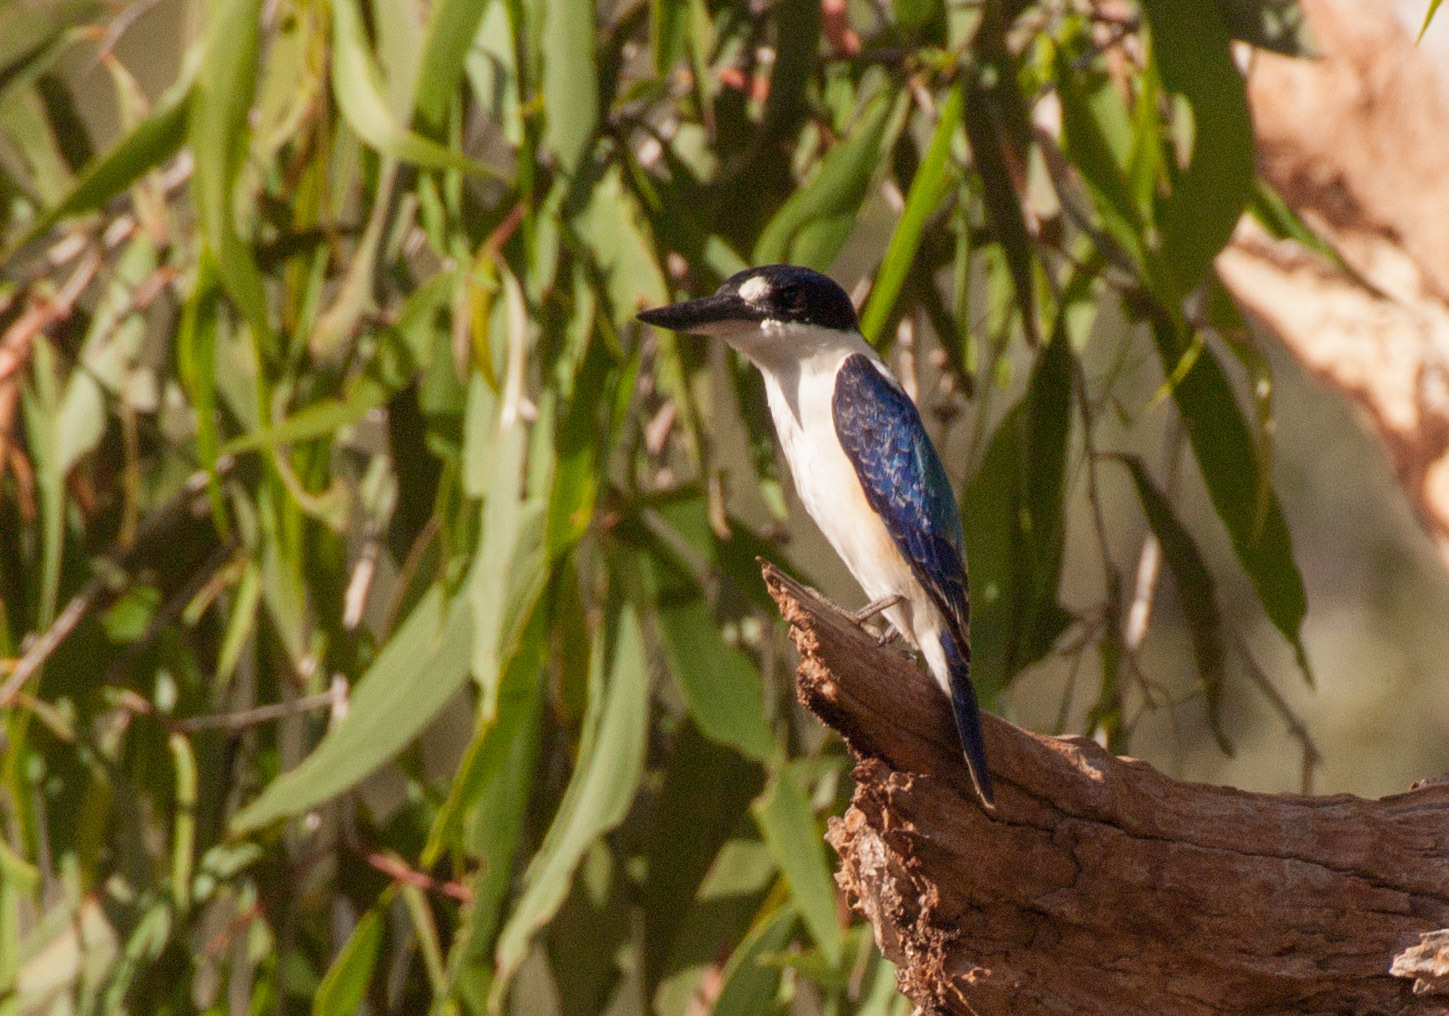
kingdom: Animalia
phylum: Chordata
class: Aves
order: Coraciiformes
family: Alcedinidae
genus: Todiramphus
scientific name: Todiramphus macleayii
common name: Forest kingfisher
